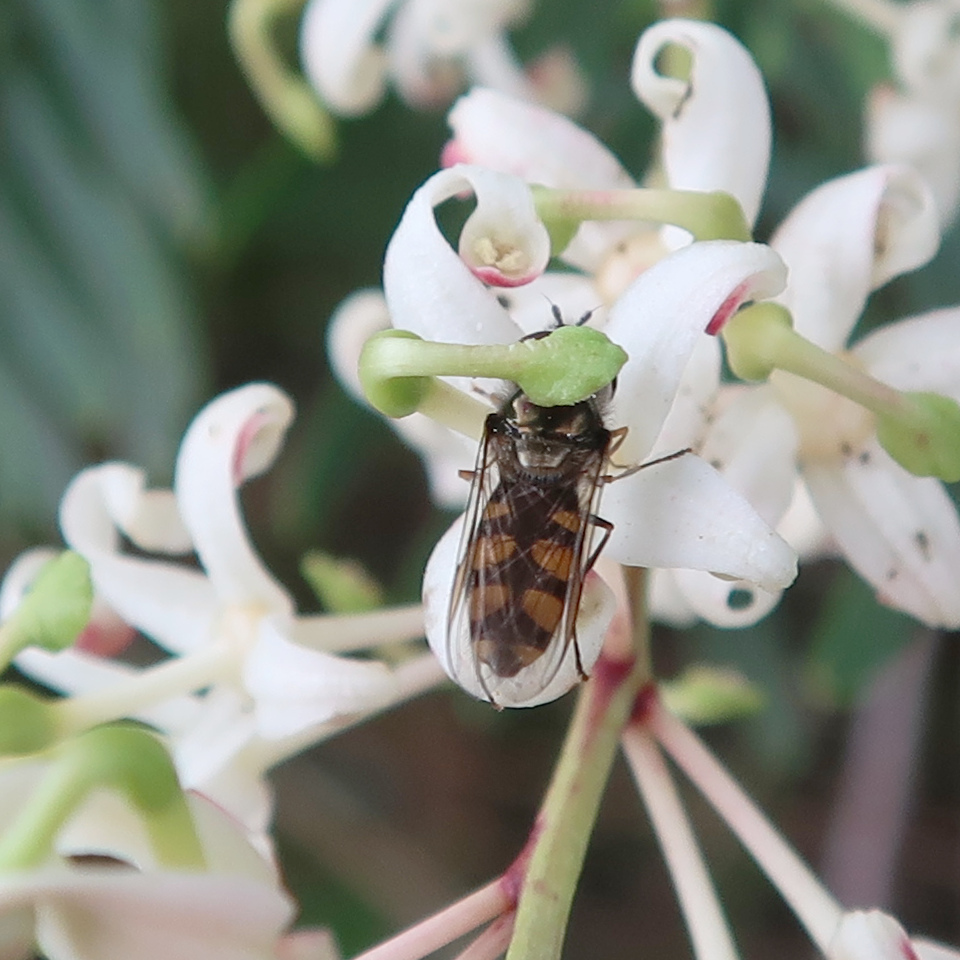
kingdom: Animalia
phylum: Arthropoda
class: Insecta
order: Diptera
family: Syrphidae
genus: Melangyna
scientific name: Melangyna viridiceps
